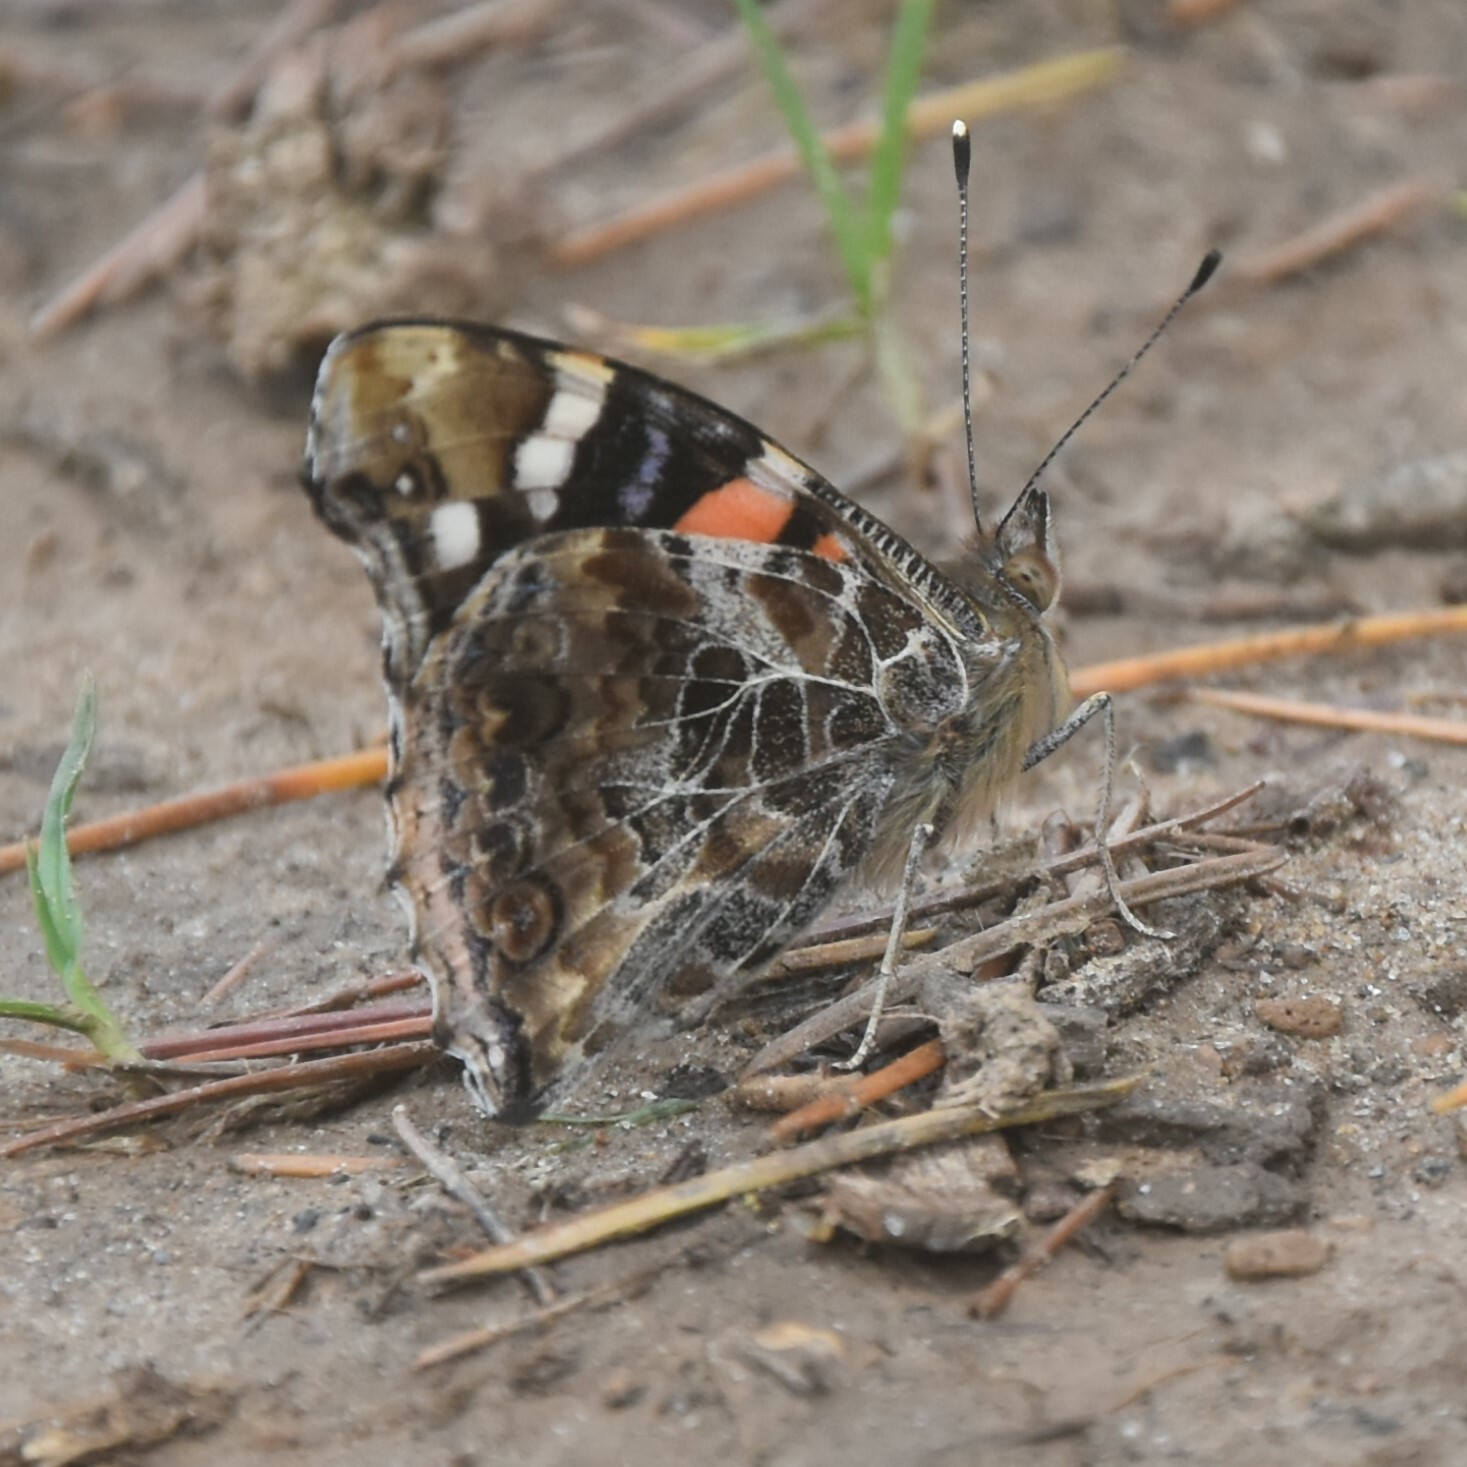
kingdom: Animalia
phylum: Arthropoda
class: Insecta
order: Lepidoptera
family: Nymphalidae
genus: Vanessa
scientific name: Vanessa indica
